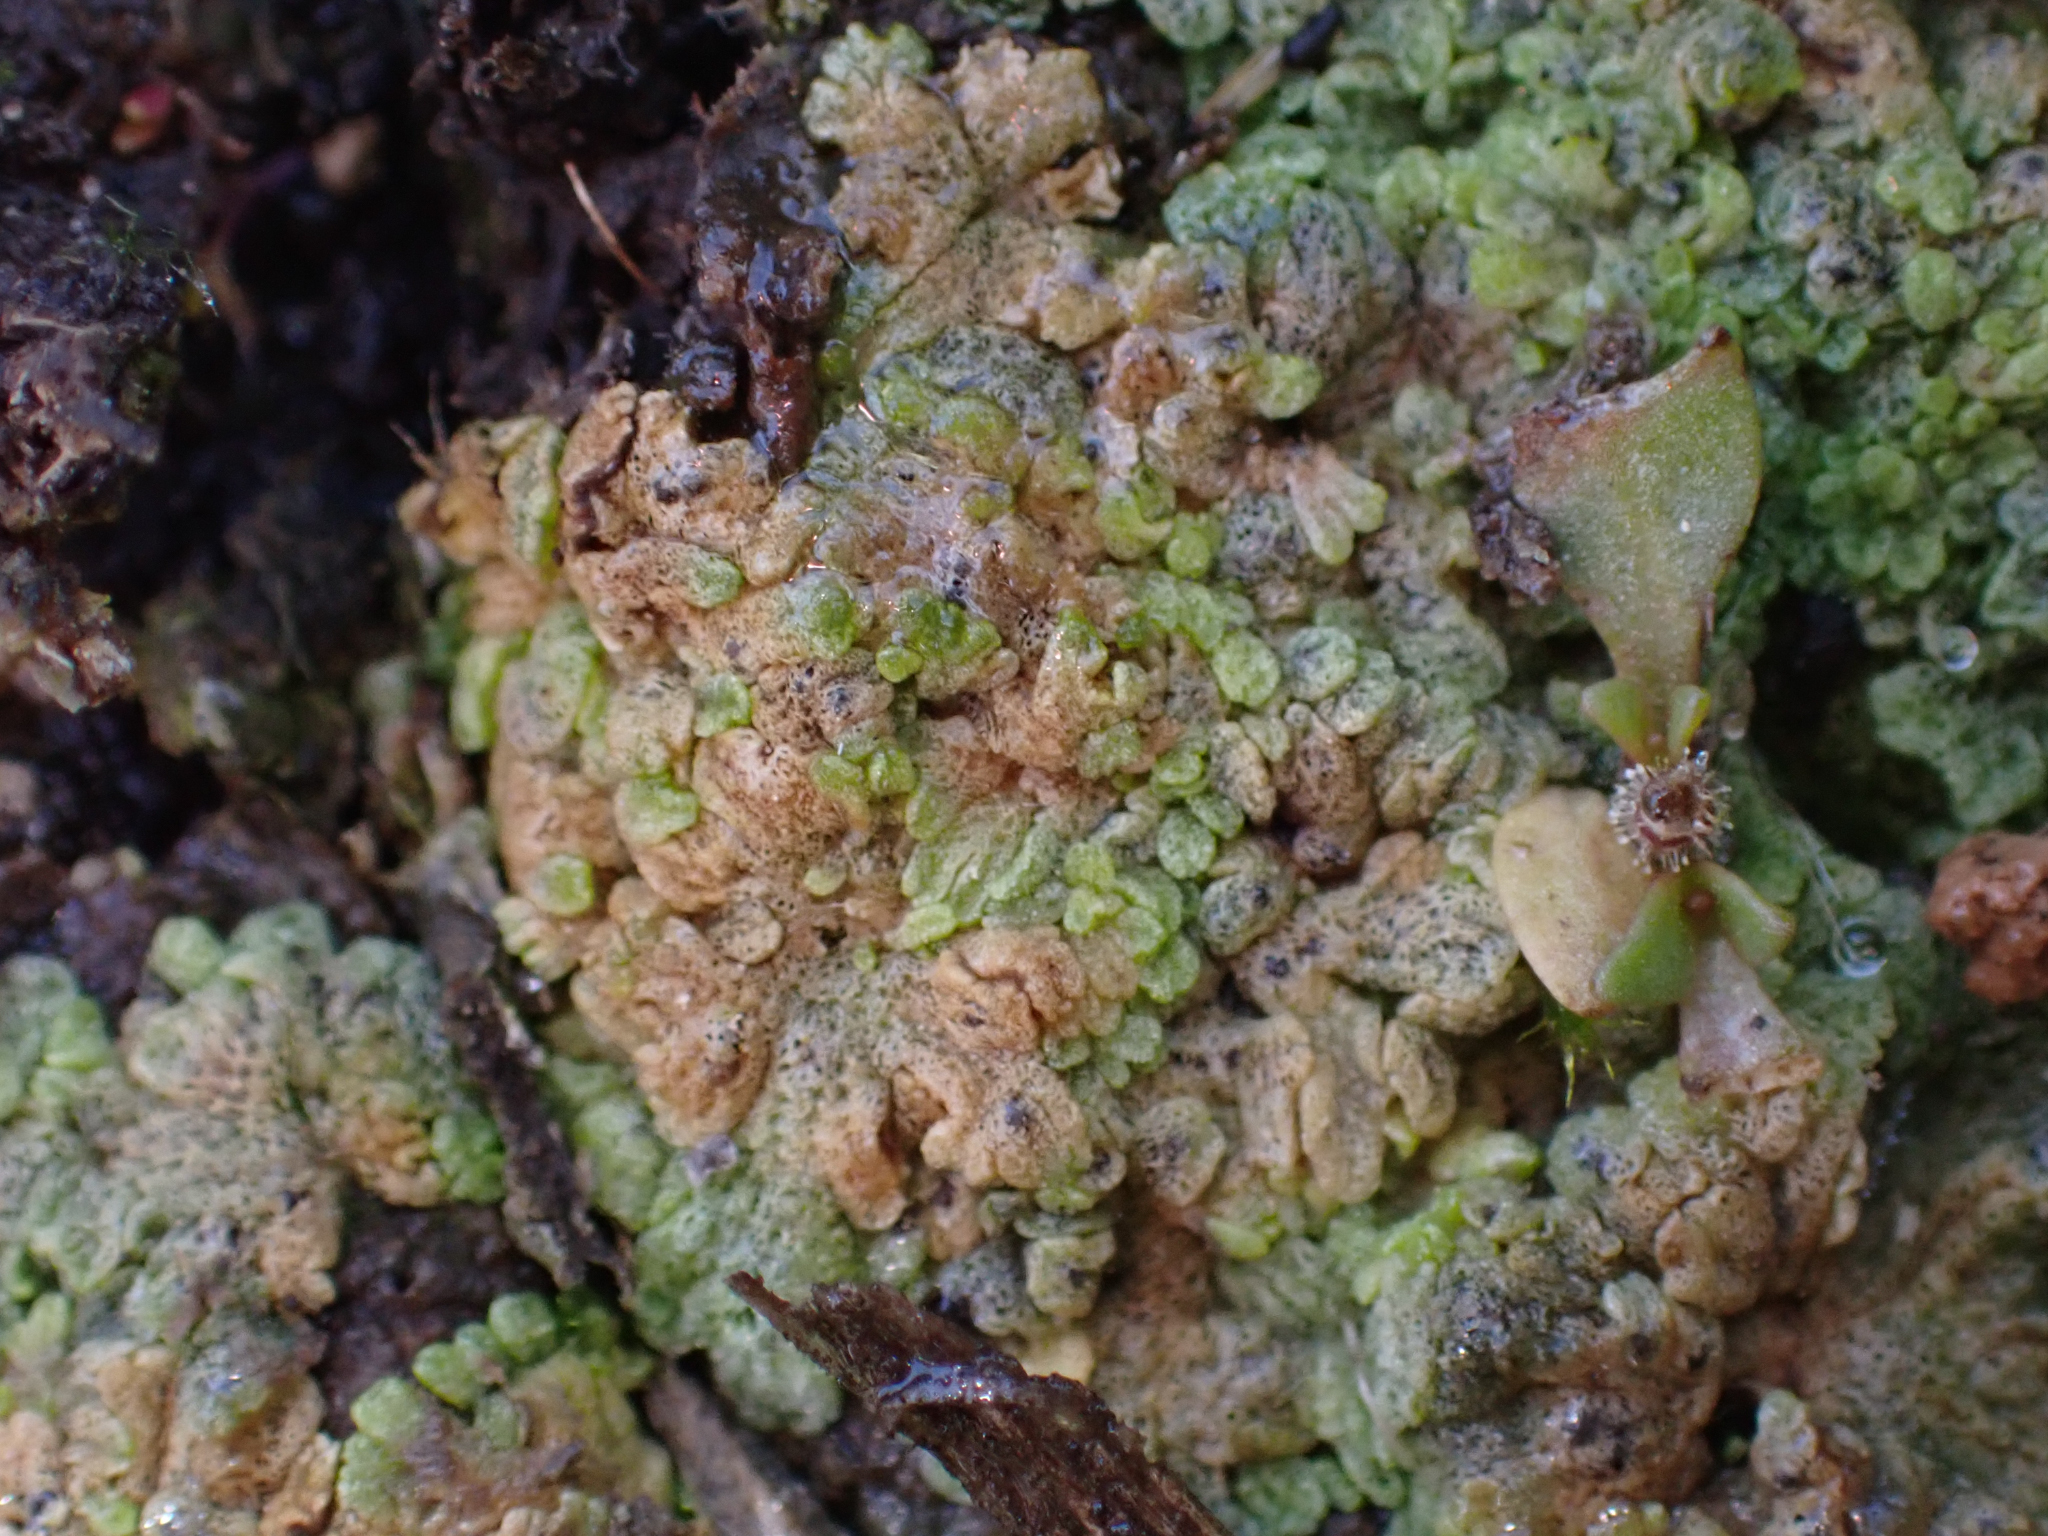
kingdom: Plantae
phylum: Marchantiophyta
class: Marchantiopsida
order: Marchantiales
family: Ricciaceae
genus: Riccia
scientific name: Riccia cavernosa
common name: Cavernous crystalwort
